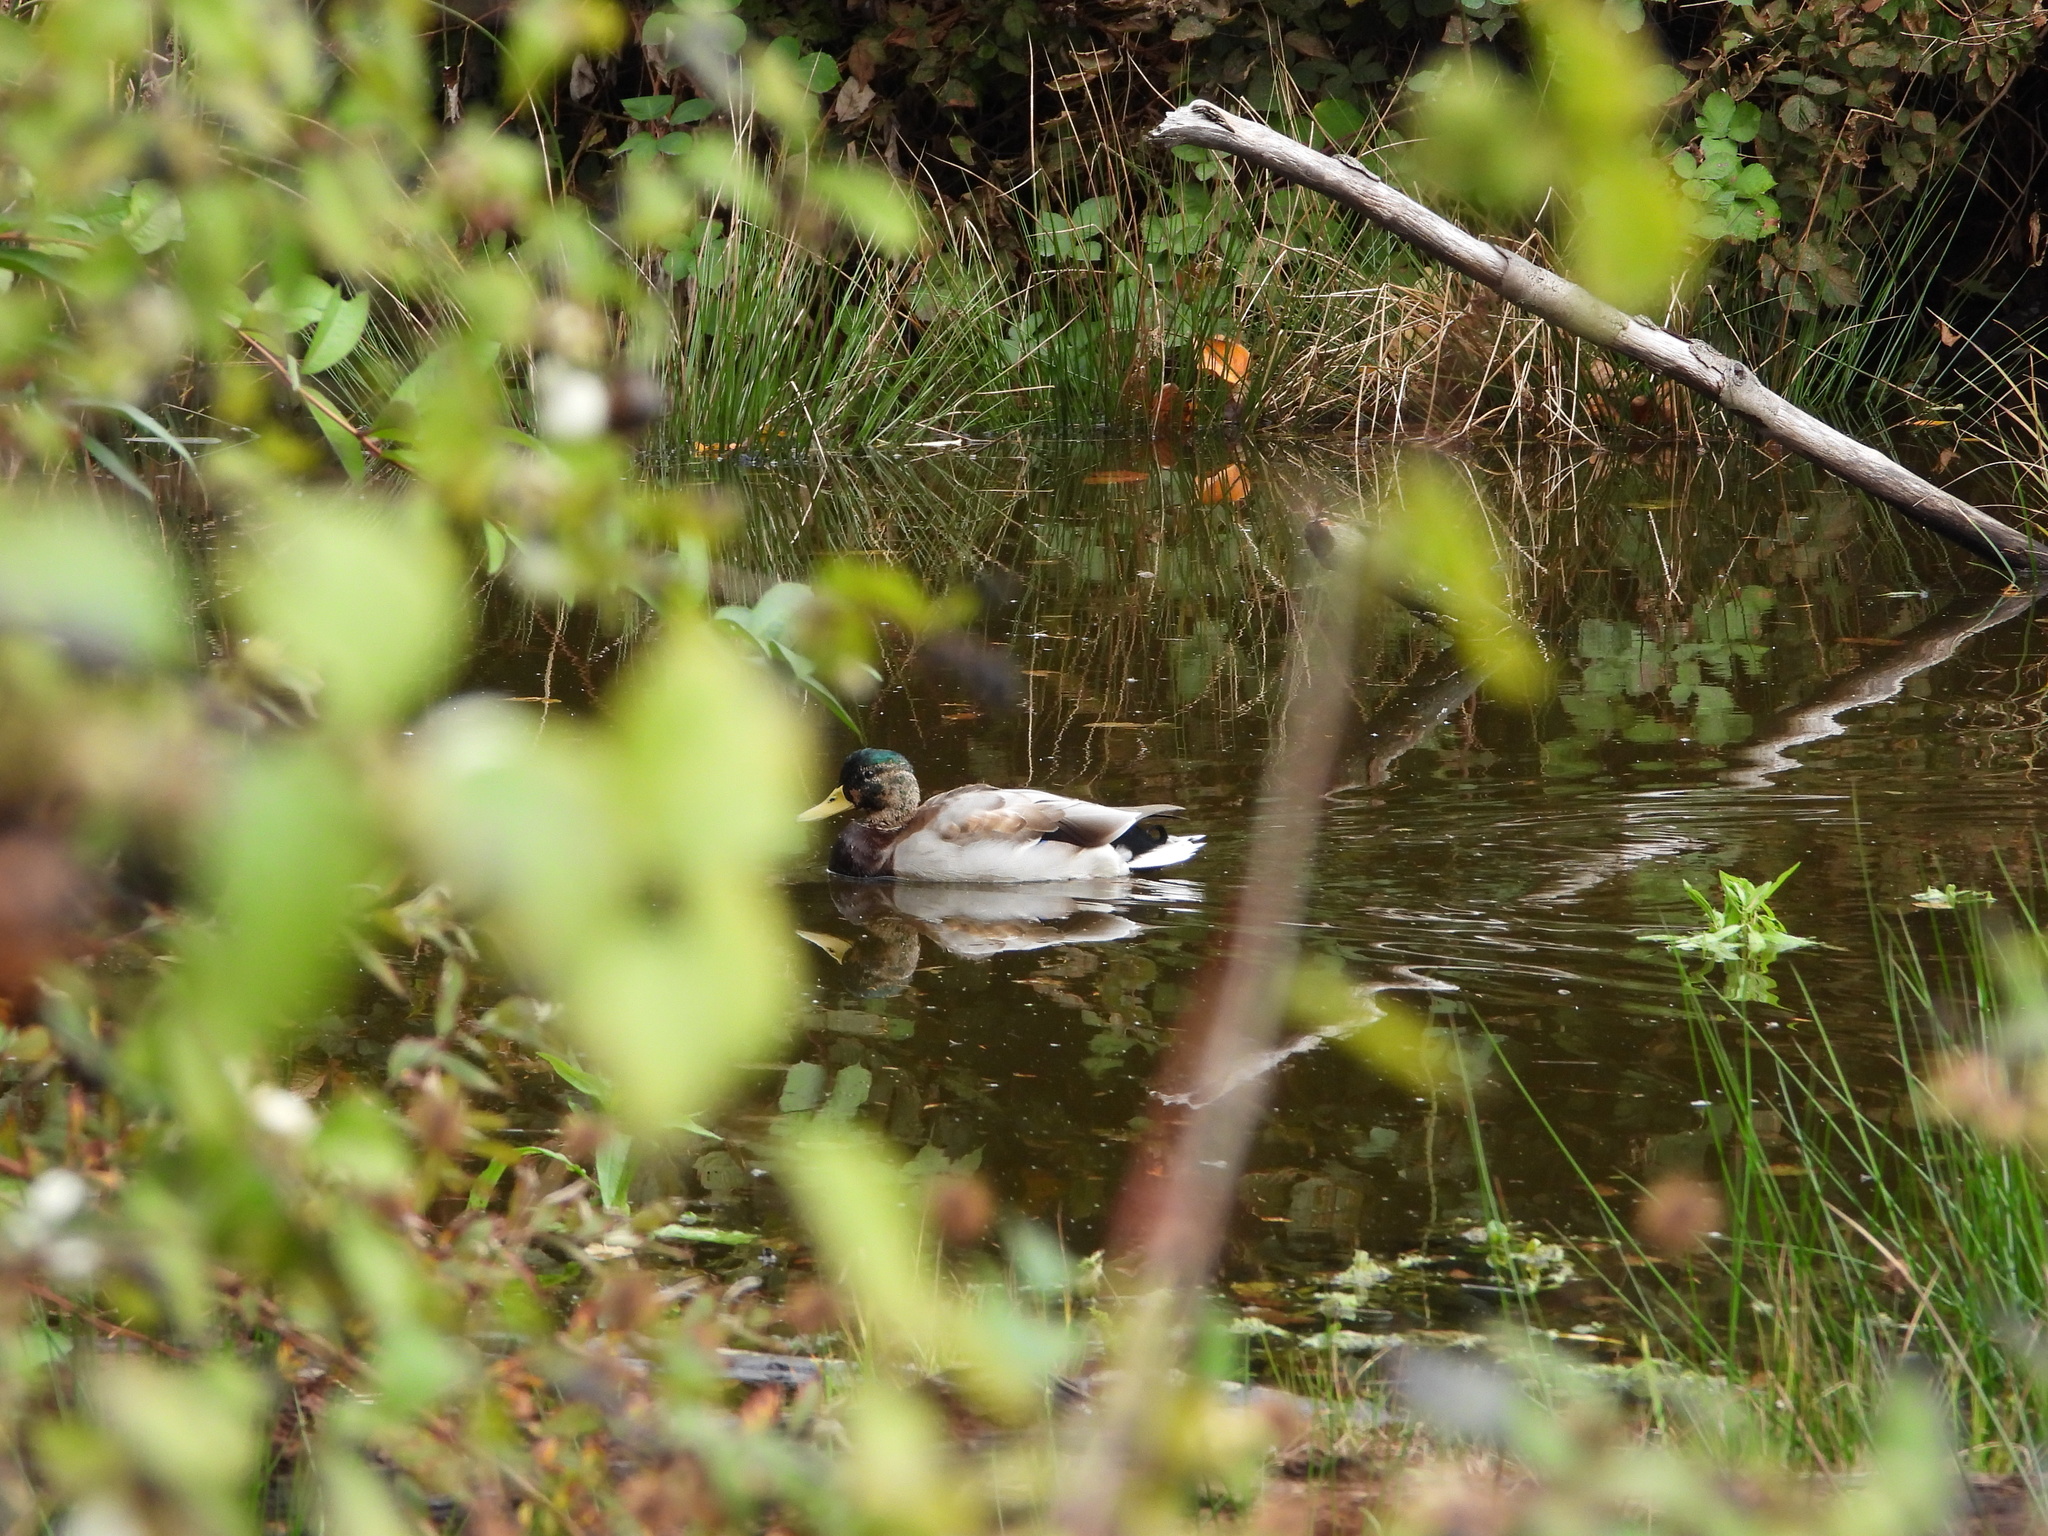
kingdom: Animalia
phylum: Chordata
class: Aves
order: Anseriformes
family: Anatidae
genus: Anas
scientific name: Anas platyrhynchos
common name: Mallard
